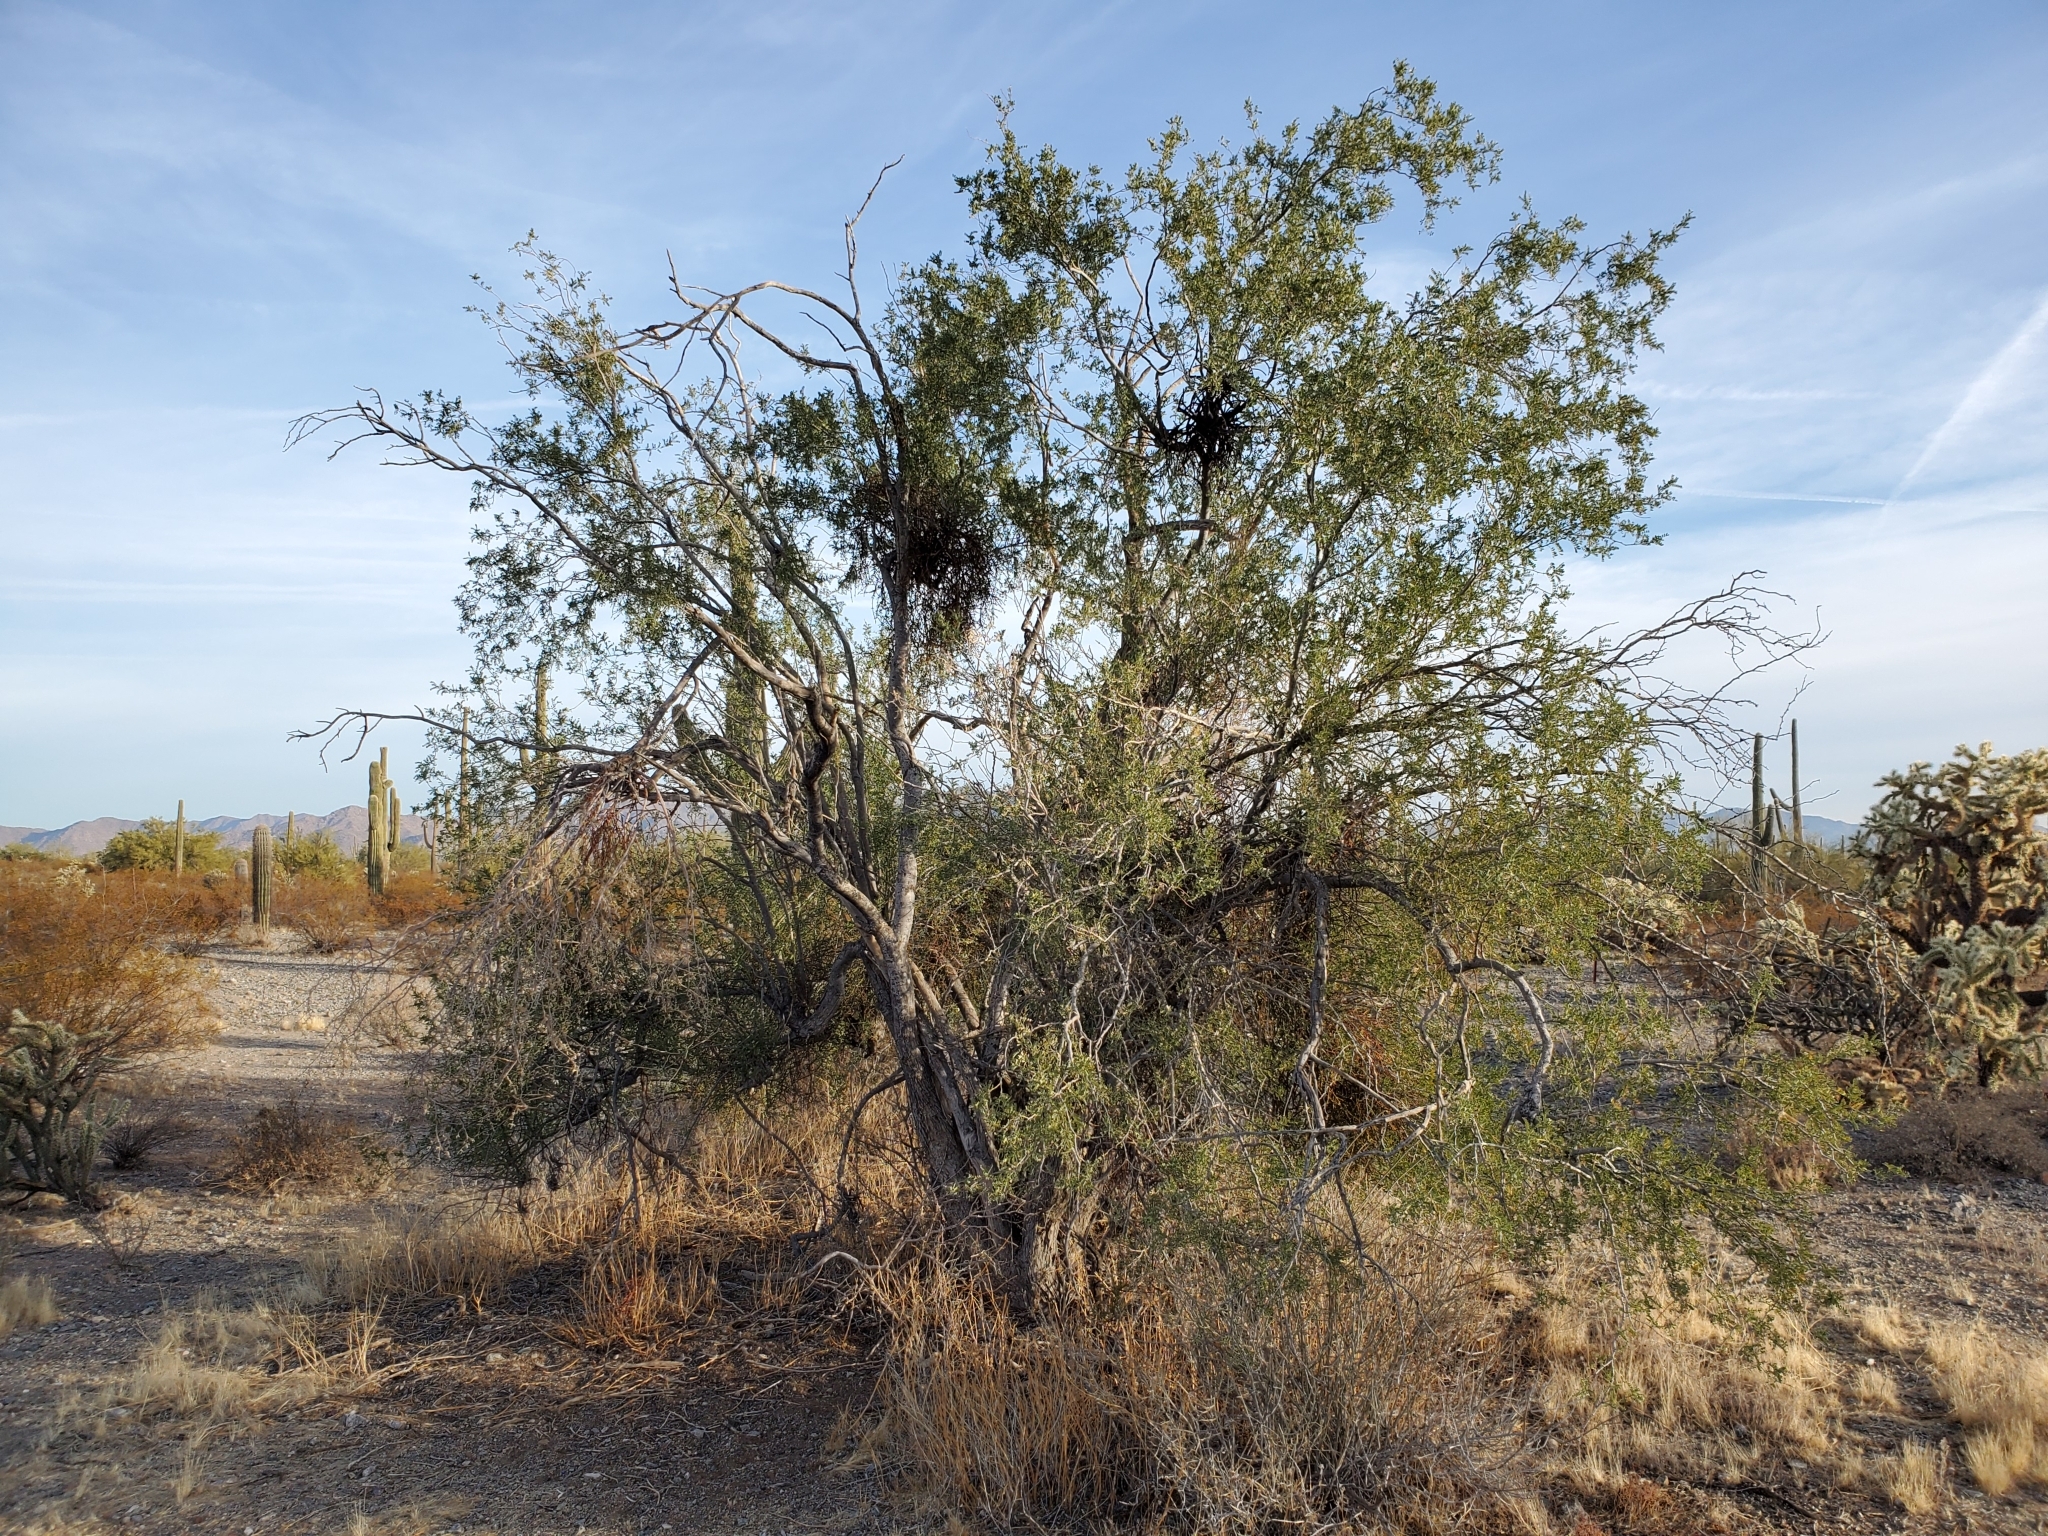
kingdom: Plantae
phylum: Tracheophyta
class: Magnoliopsida
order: Fabales
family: Fabaceae
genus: Olneya
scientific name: Olneya tesota
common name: Desert ironwood
